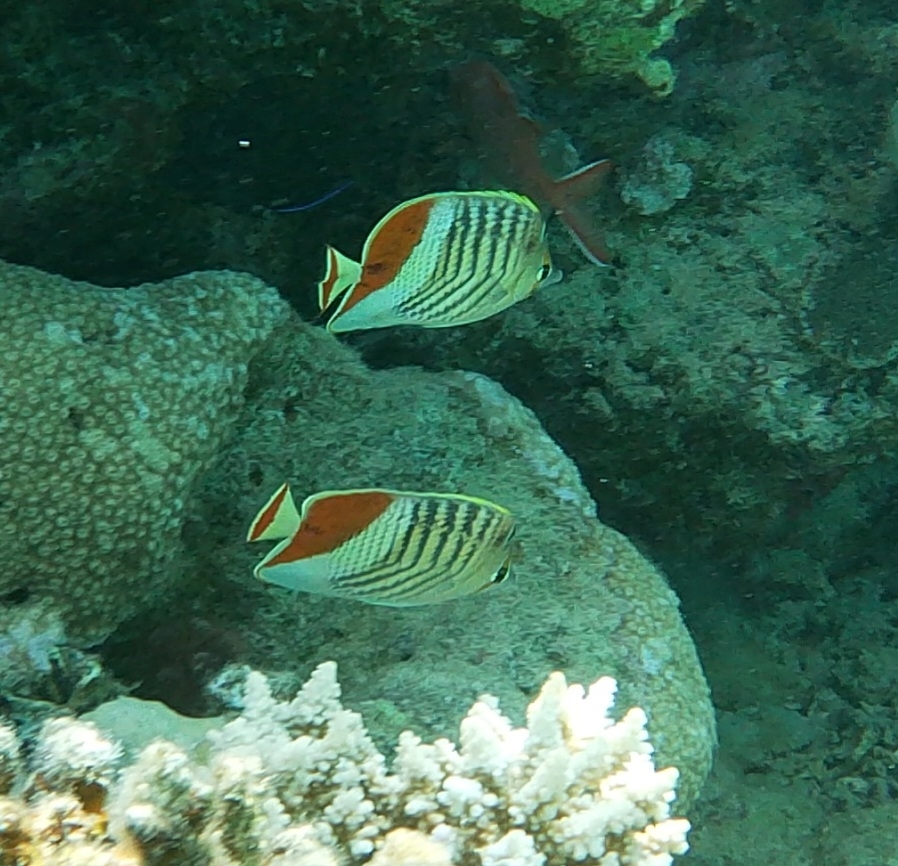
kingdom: Animalia
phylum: Chordata
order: Perciformes
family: Chaetodontidae
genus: Chaetodon
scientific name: Chaetodon paucifasciatus
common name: Crown butterflyfish
